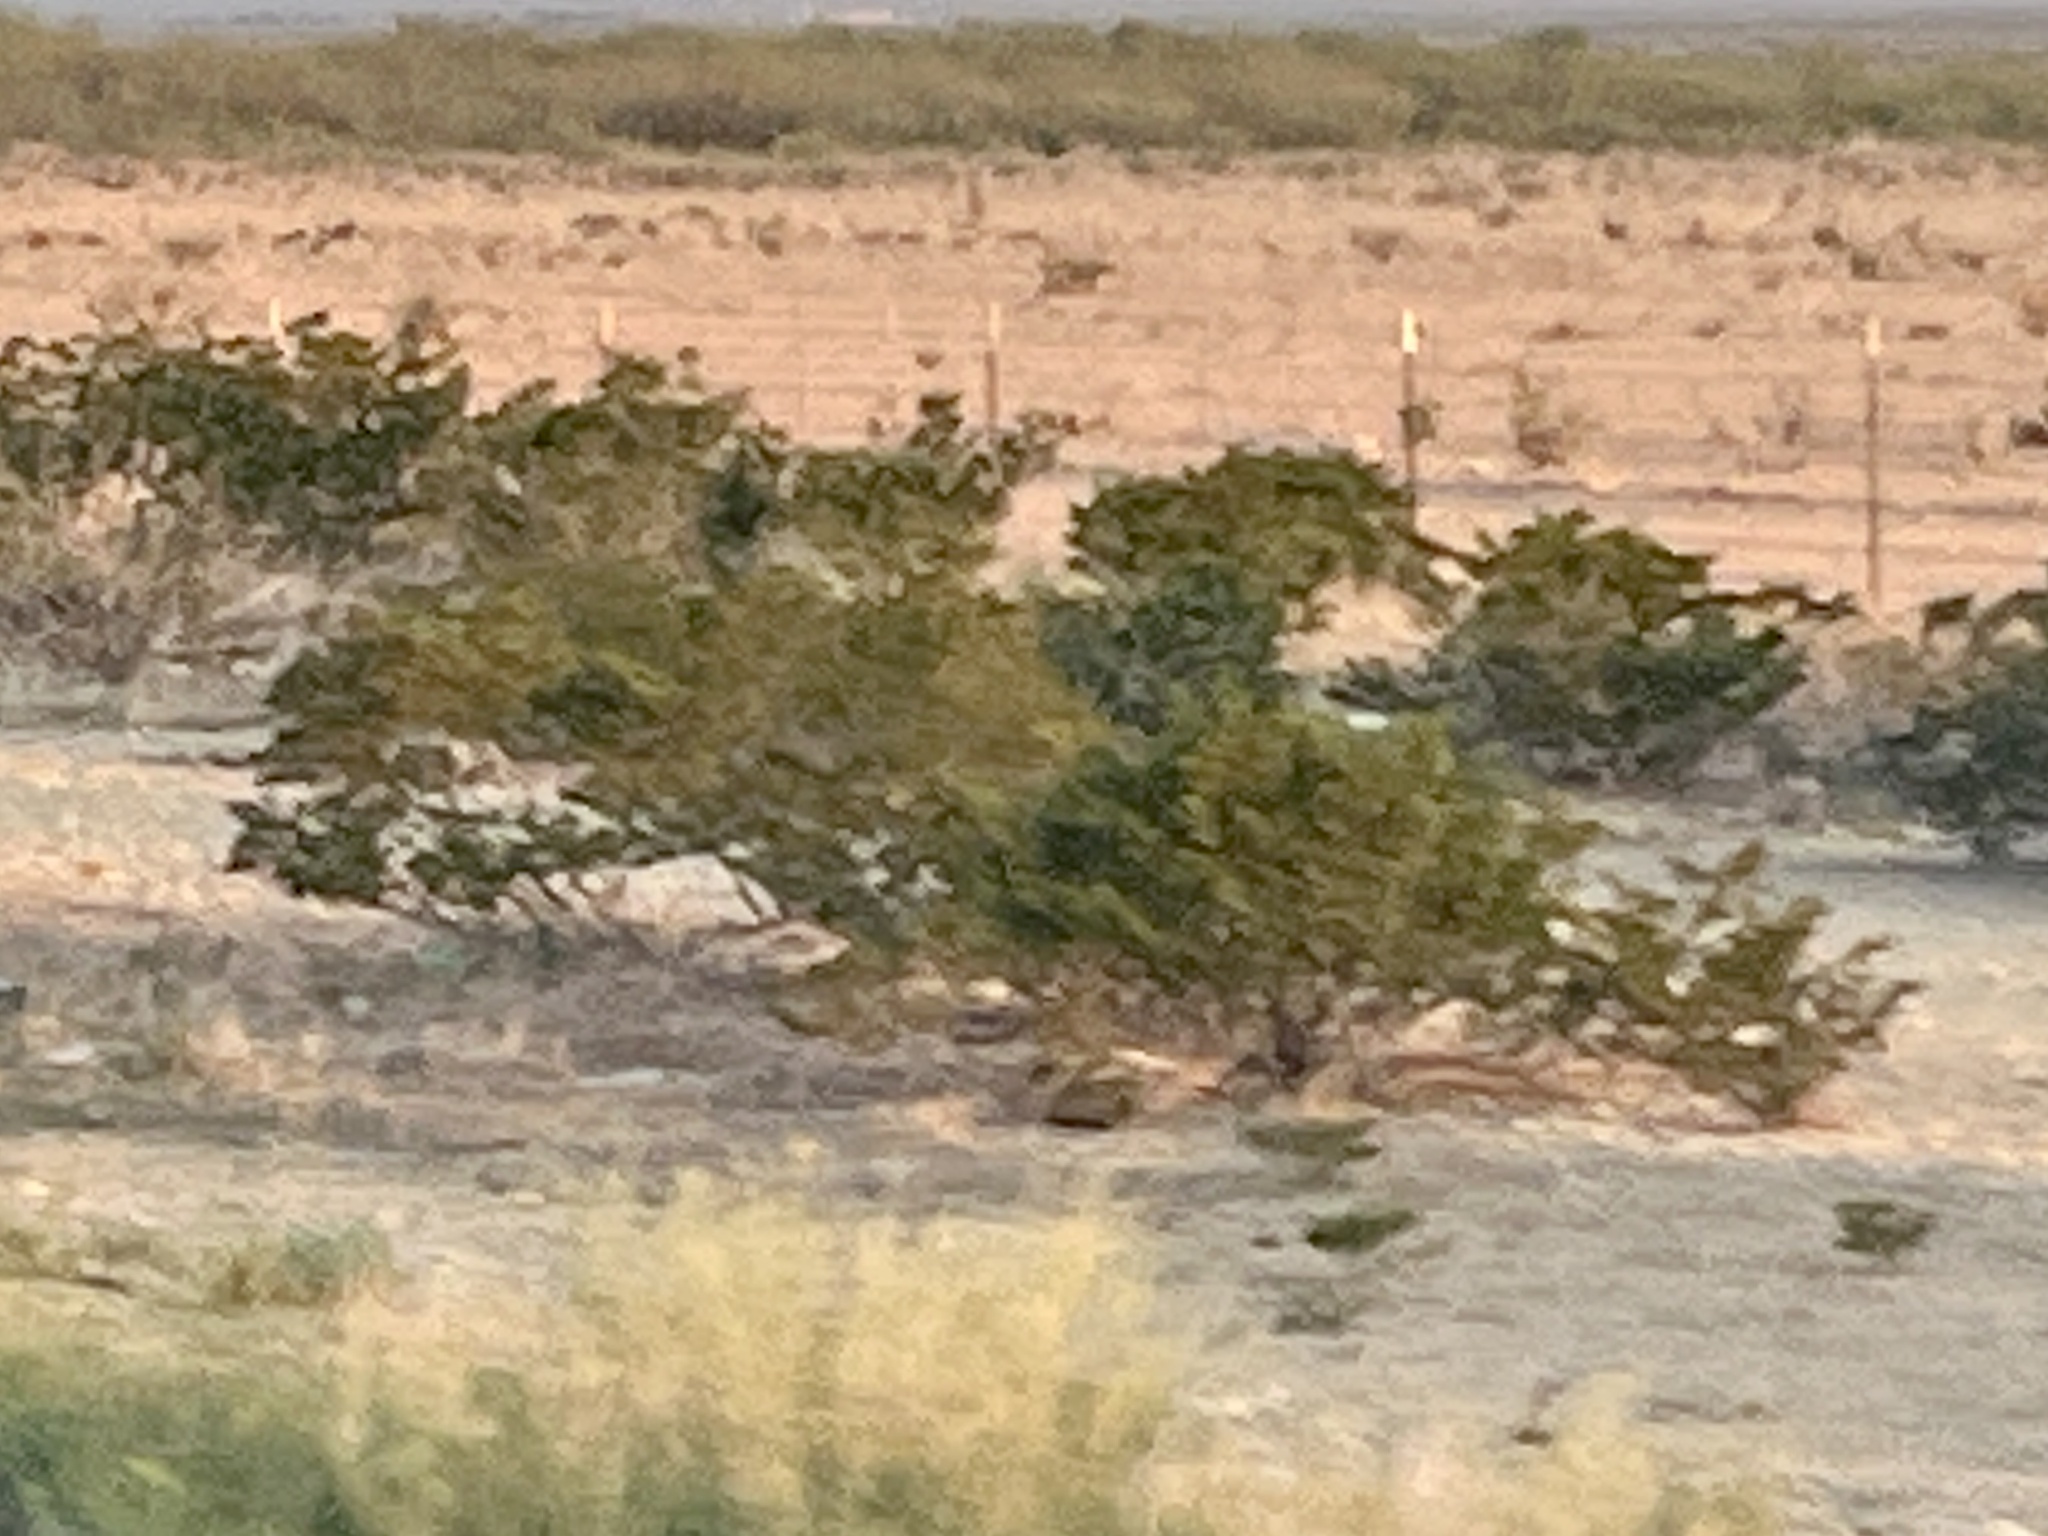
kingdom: Plantae
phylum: Tracheophyta
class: Magnoliopsida
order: Zygophyllales
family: Zygophyllaceae
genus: Larrea
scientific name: Larrea tridentata
